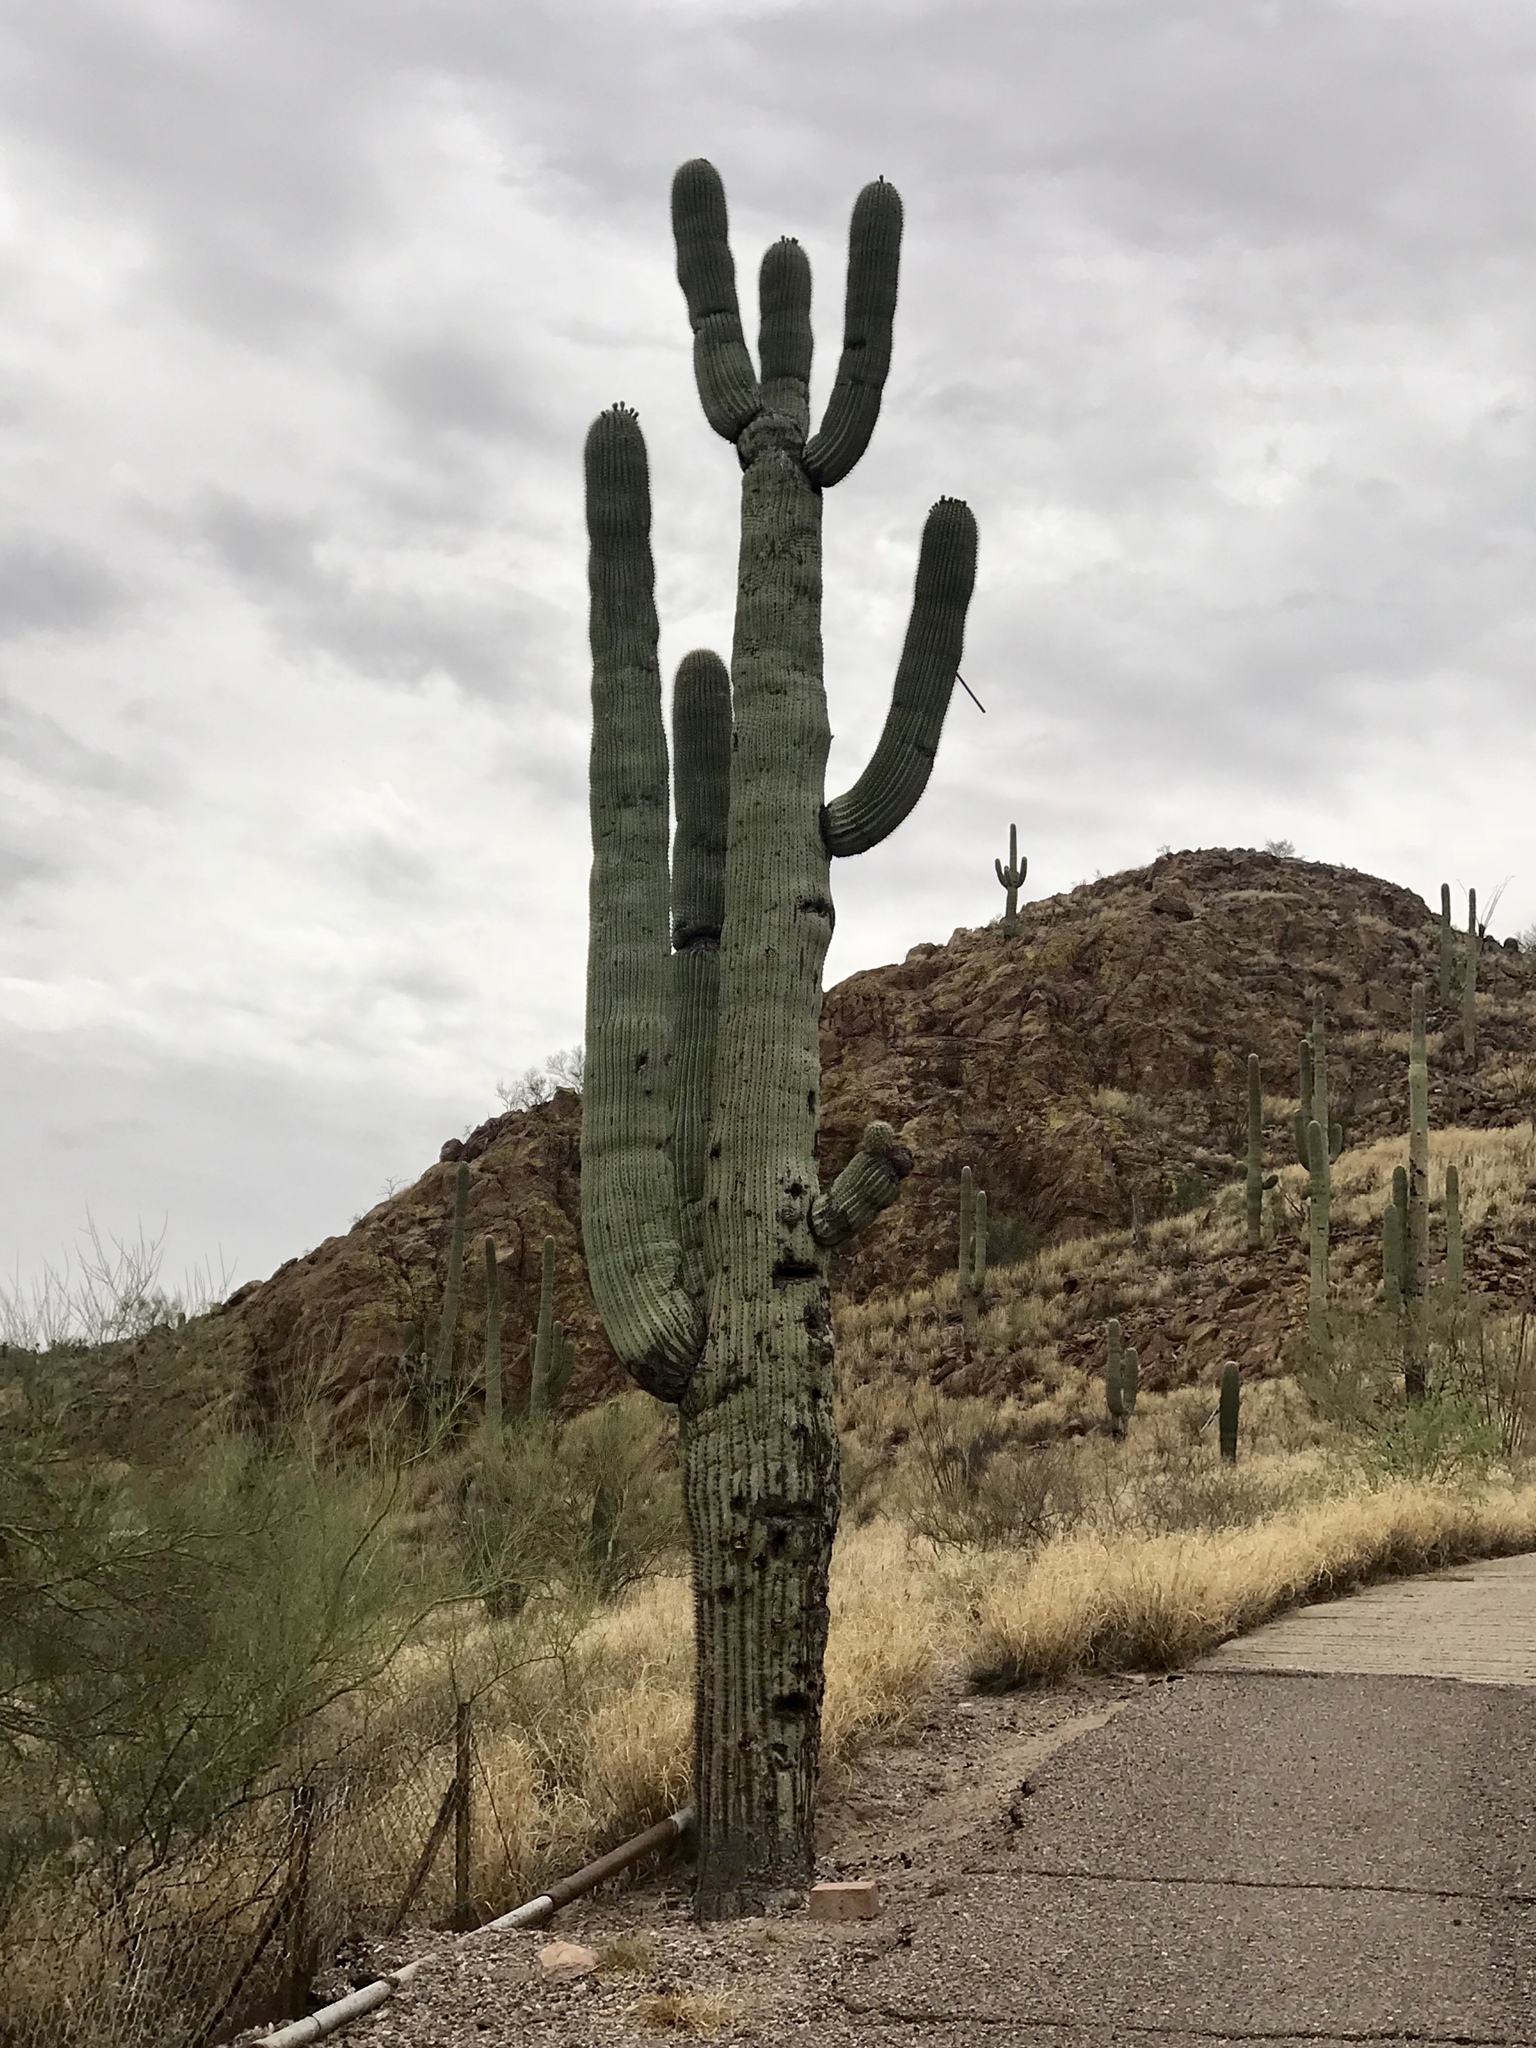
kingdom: Plantae
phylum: Tracheophyta
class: Magnoliopsida
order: Caryophyllales
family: Cactaceae
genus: Carnegiea
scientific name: Carnegiea gigantea
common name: Saguaro
